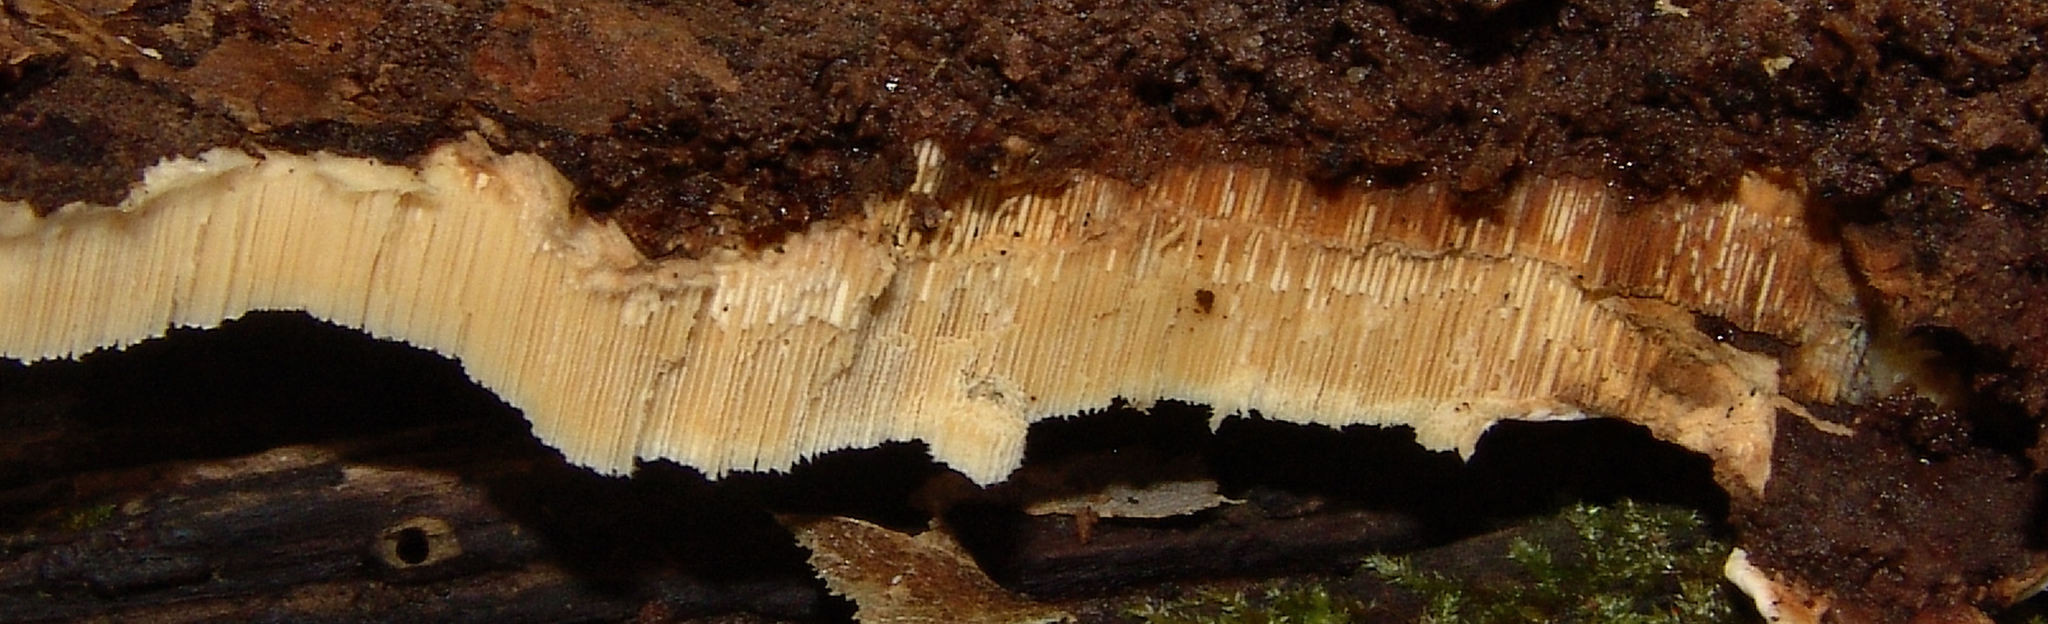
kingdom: Fungi
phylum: Basidiomycota
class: Agaricomycetes
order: Russulales
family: Bondarzewiaceae
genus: Heterobasidion
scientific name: Heterobasidion irregulare
